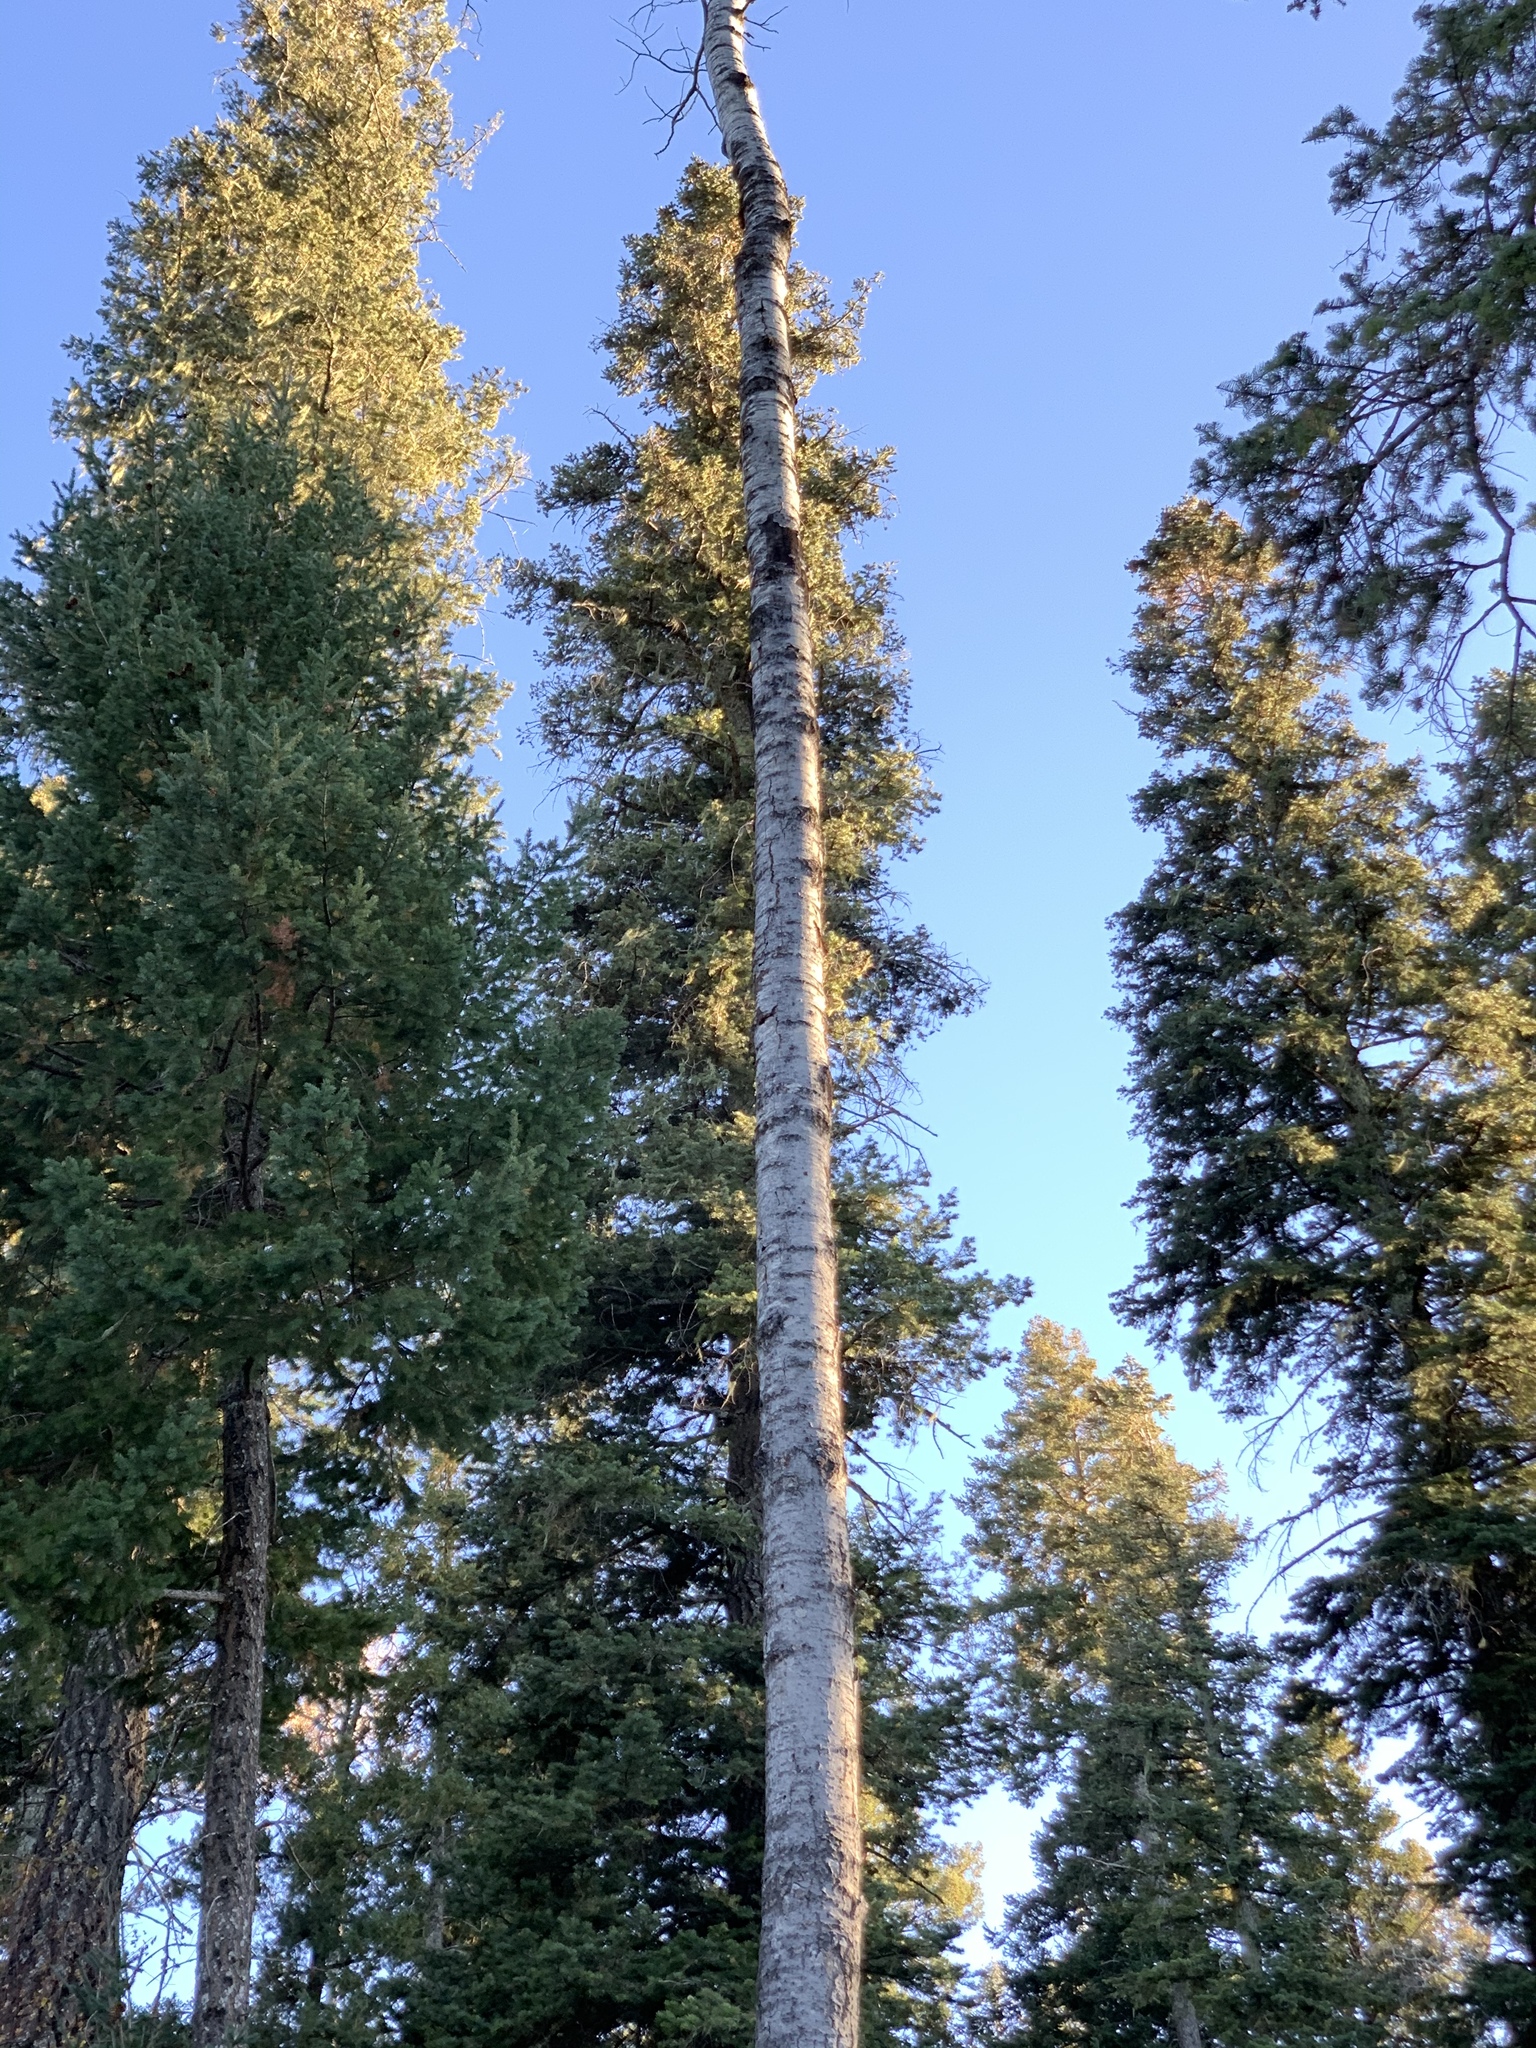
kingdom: Plantae
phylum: Tracheophyta
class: Magnoliopsida
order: Malpighiales
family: Salicaceae
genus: Populus
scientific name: Populus tremuloides
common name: Quaking aspen
